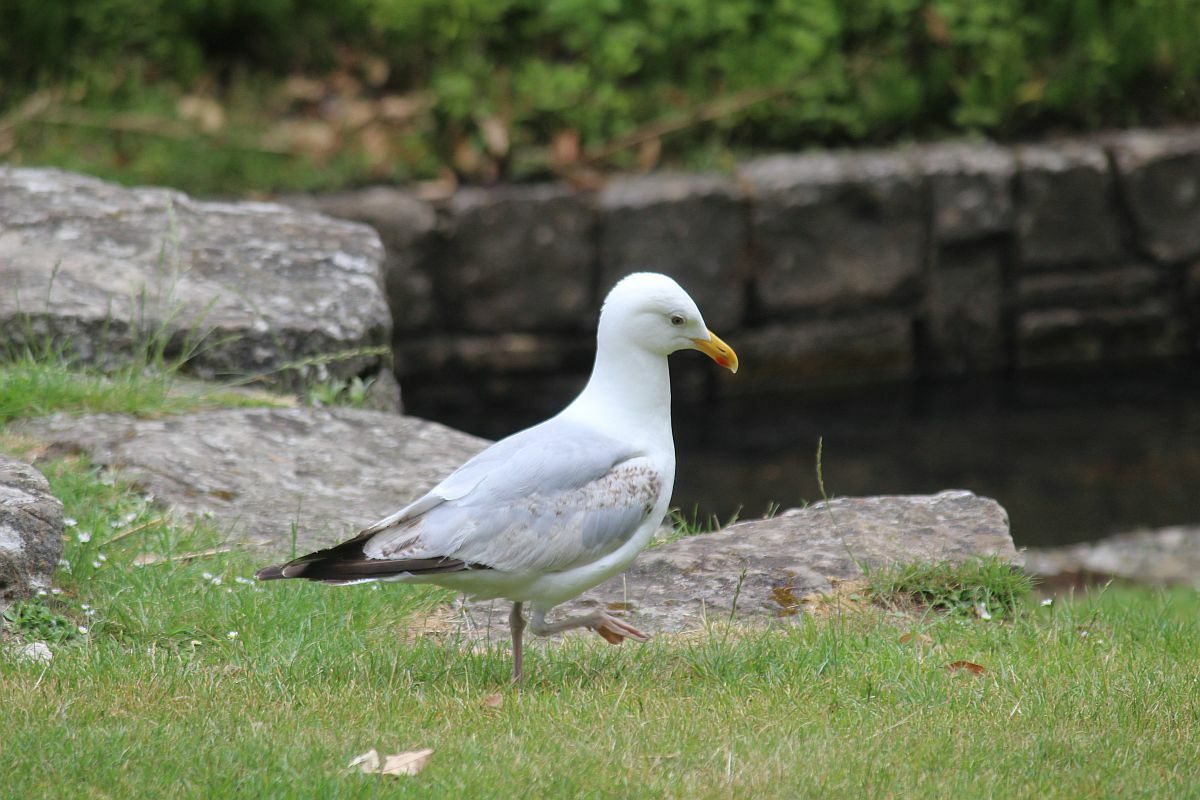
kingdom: Animalia
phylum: Chordata
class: Aves
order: Charadriiformes
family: Laridae
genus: Larus
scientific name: Larus argentatus
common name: Herring gull
